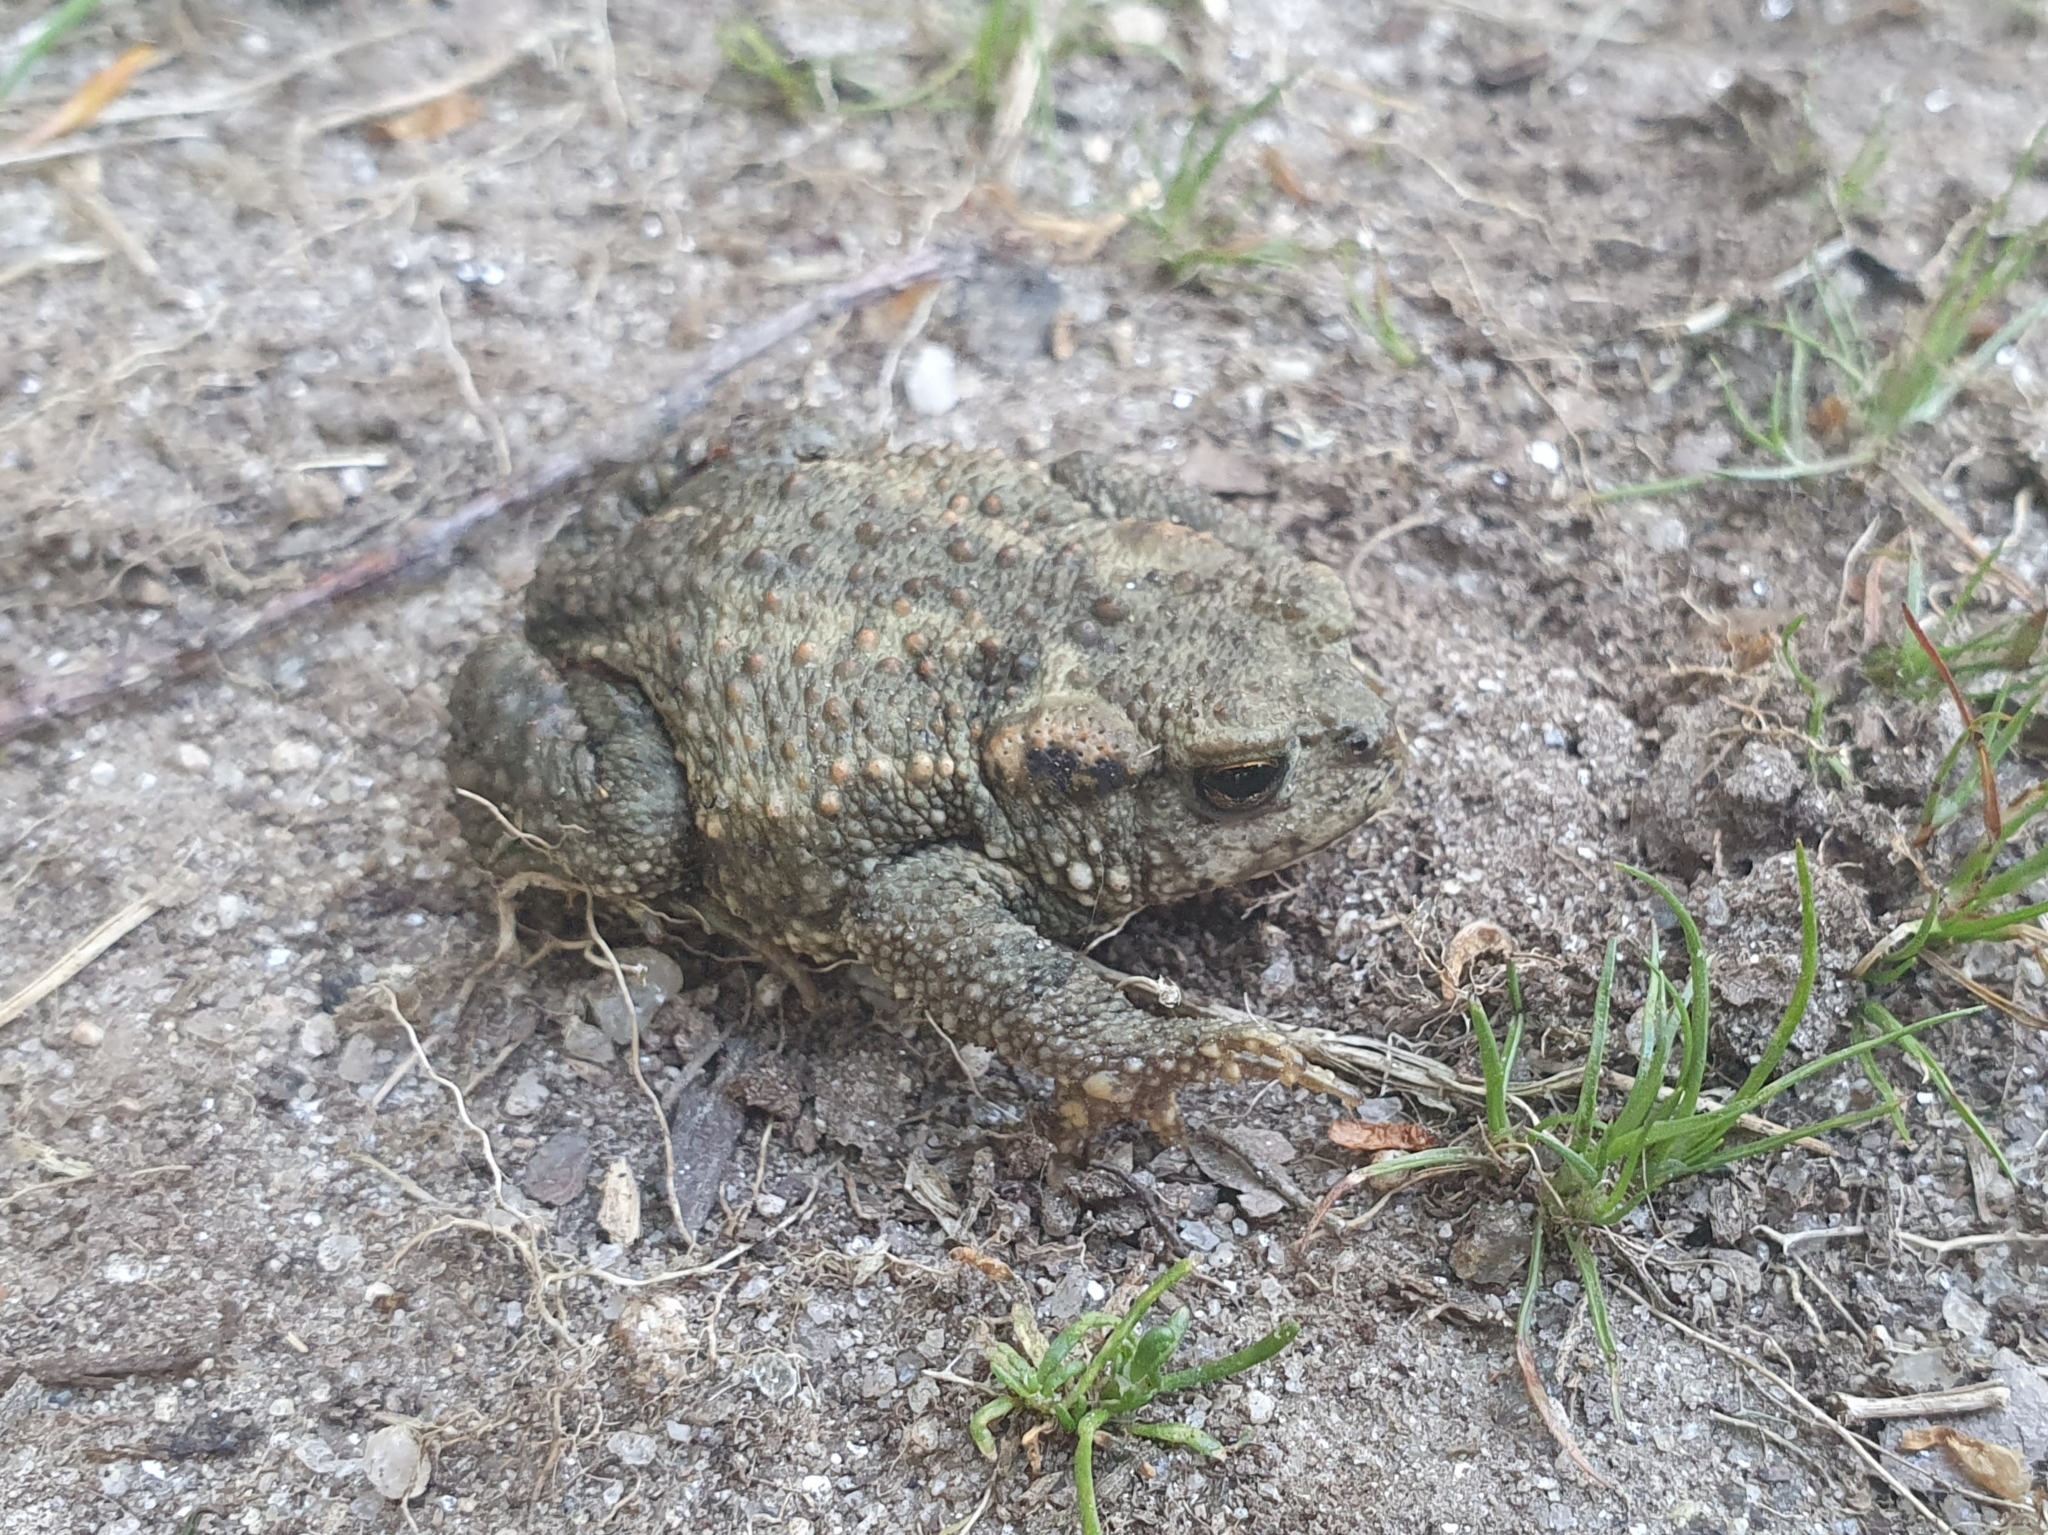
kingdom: Animalia
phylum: Chordata
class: Amphibia
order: Anura
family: Bufonidae
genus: Bufo
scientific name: Bufo spinosus
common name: Western common toad
